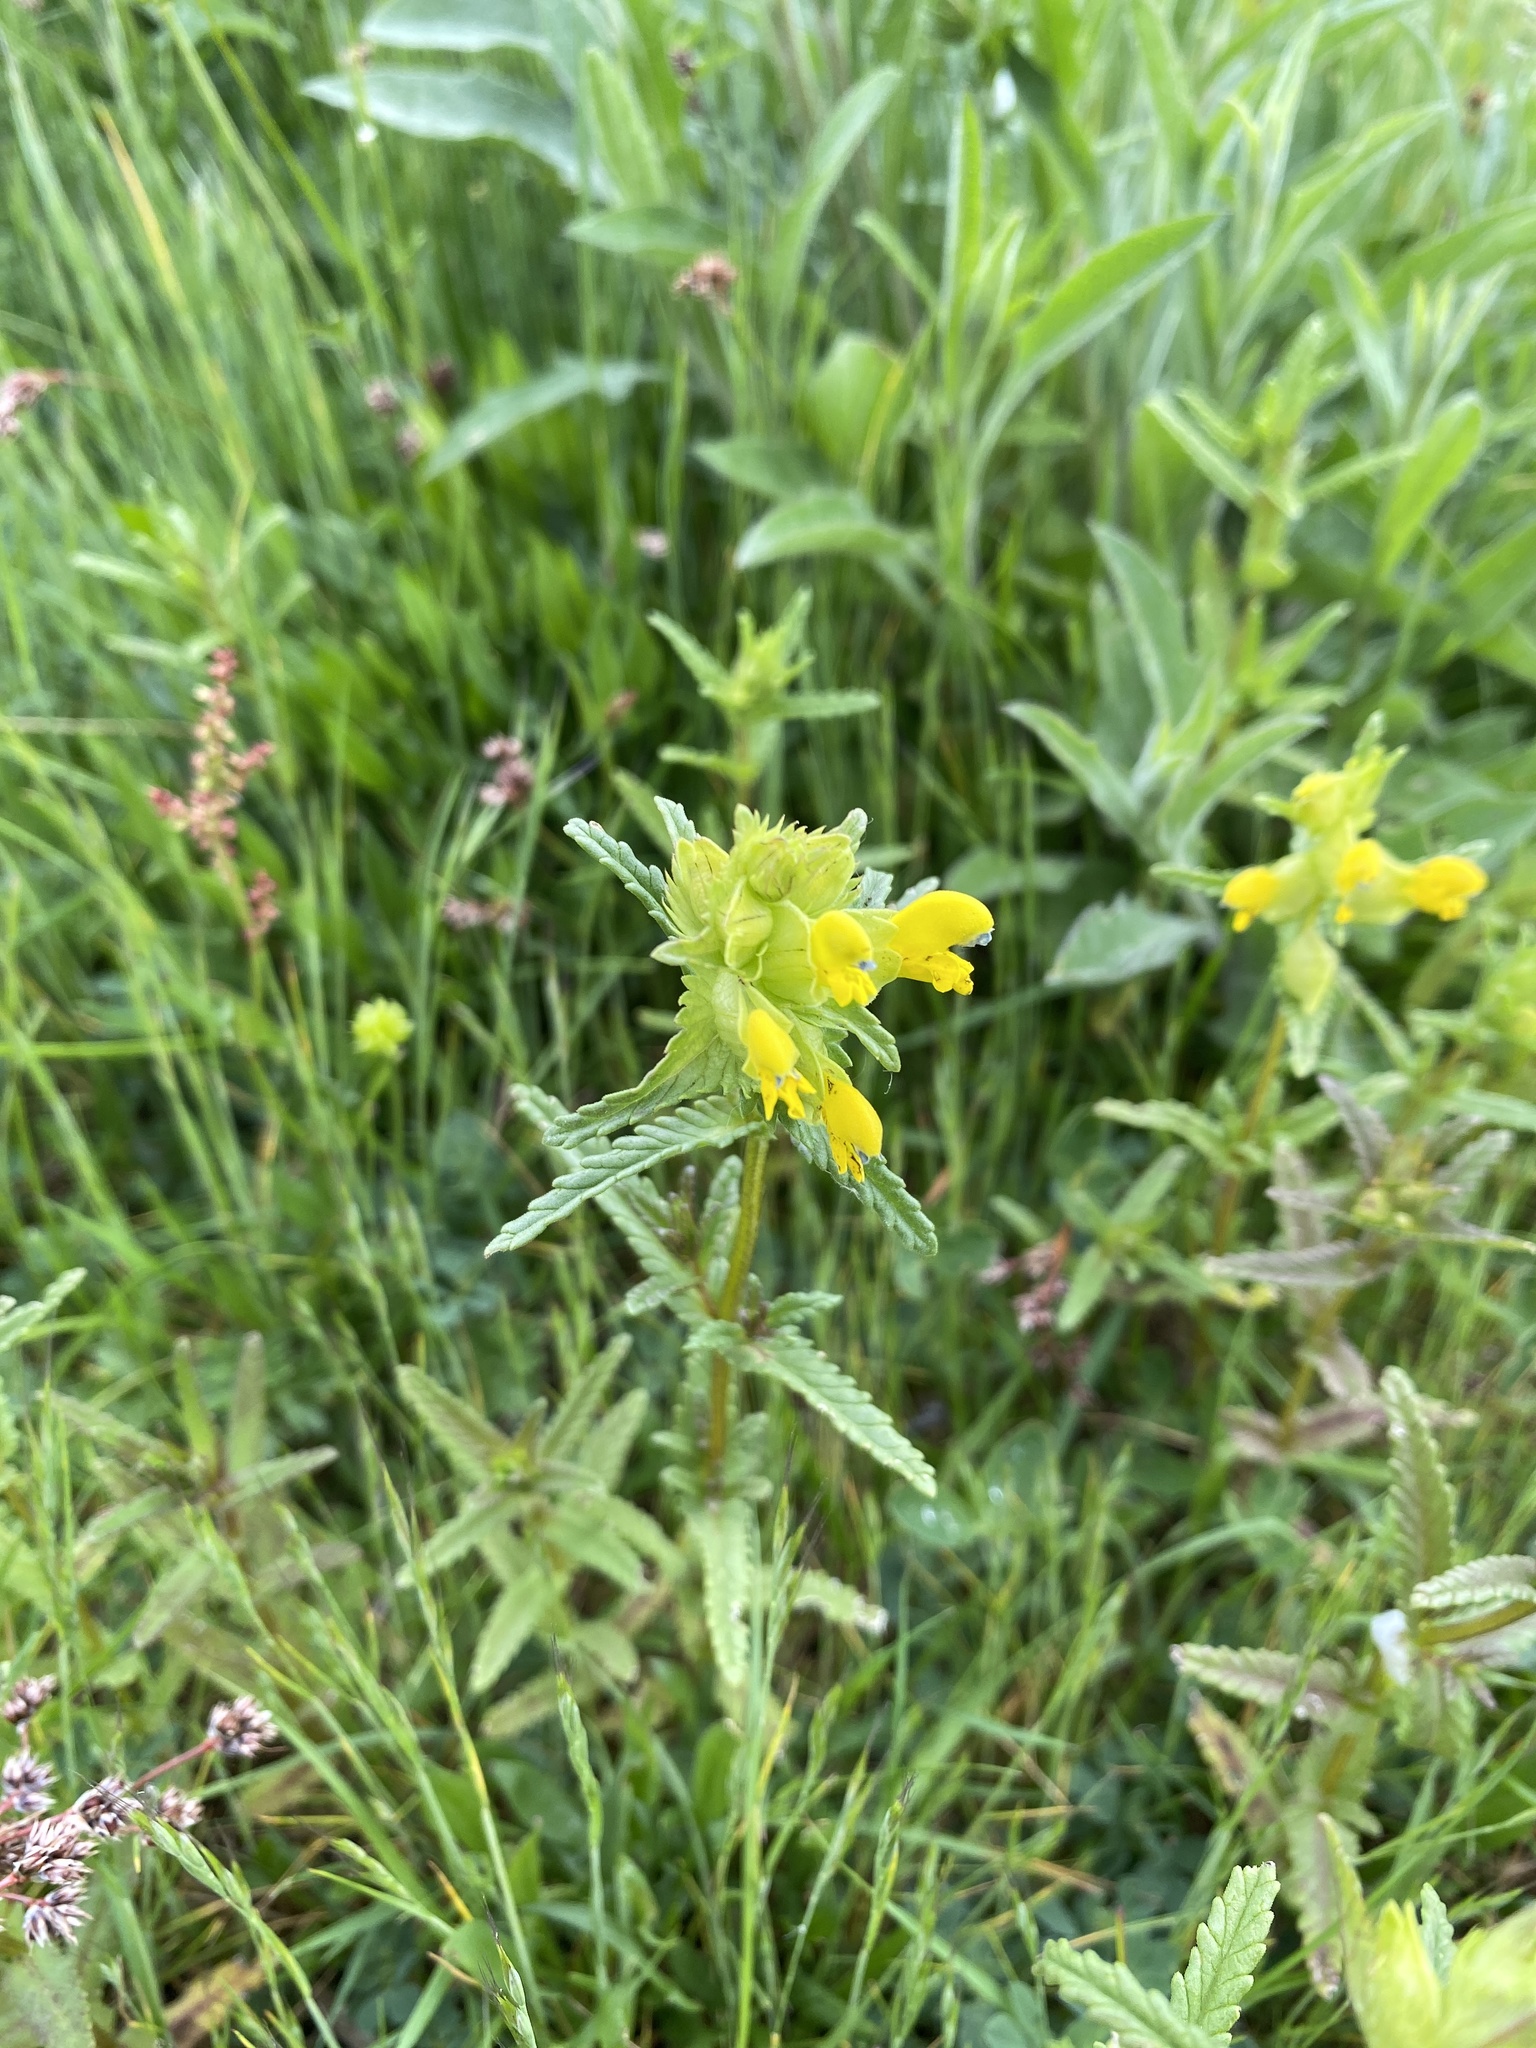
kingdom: Plantae
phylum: Tracheophyta
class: Magnoliopsida
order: Lamiales
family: Orobanchaceae
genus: Rhinanthus
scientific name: Rhinanthus minor
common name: Yellow-rattle
